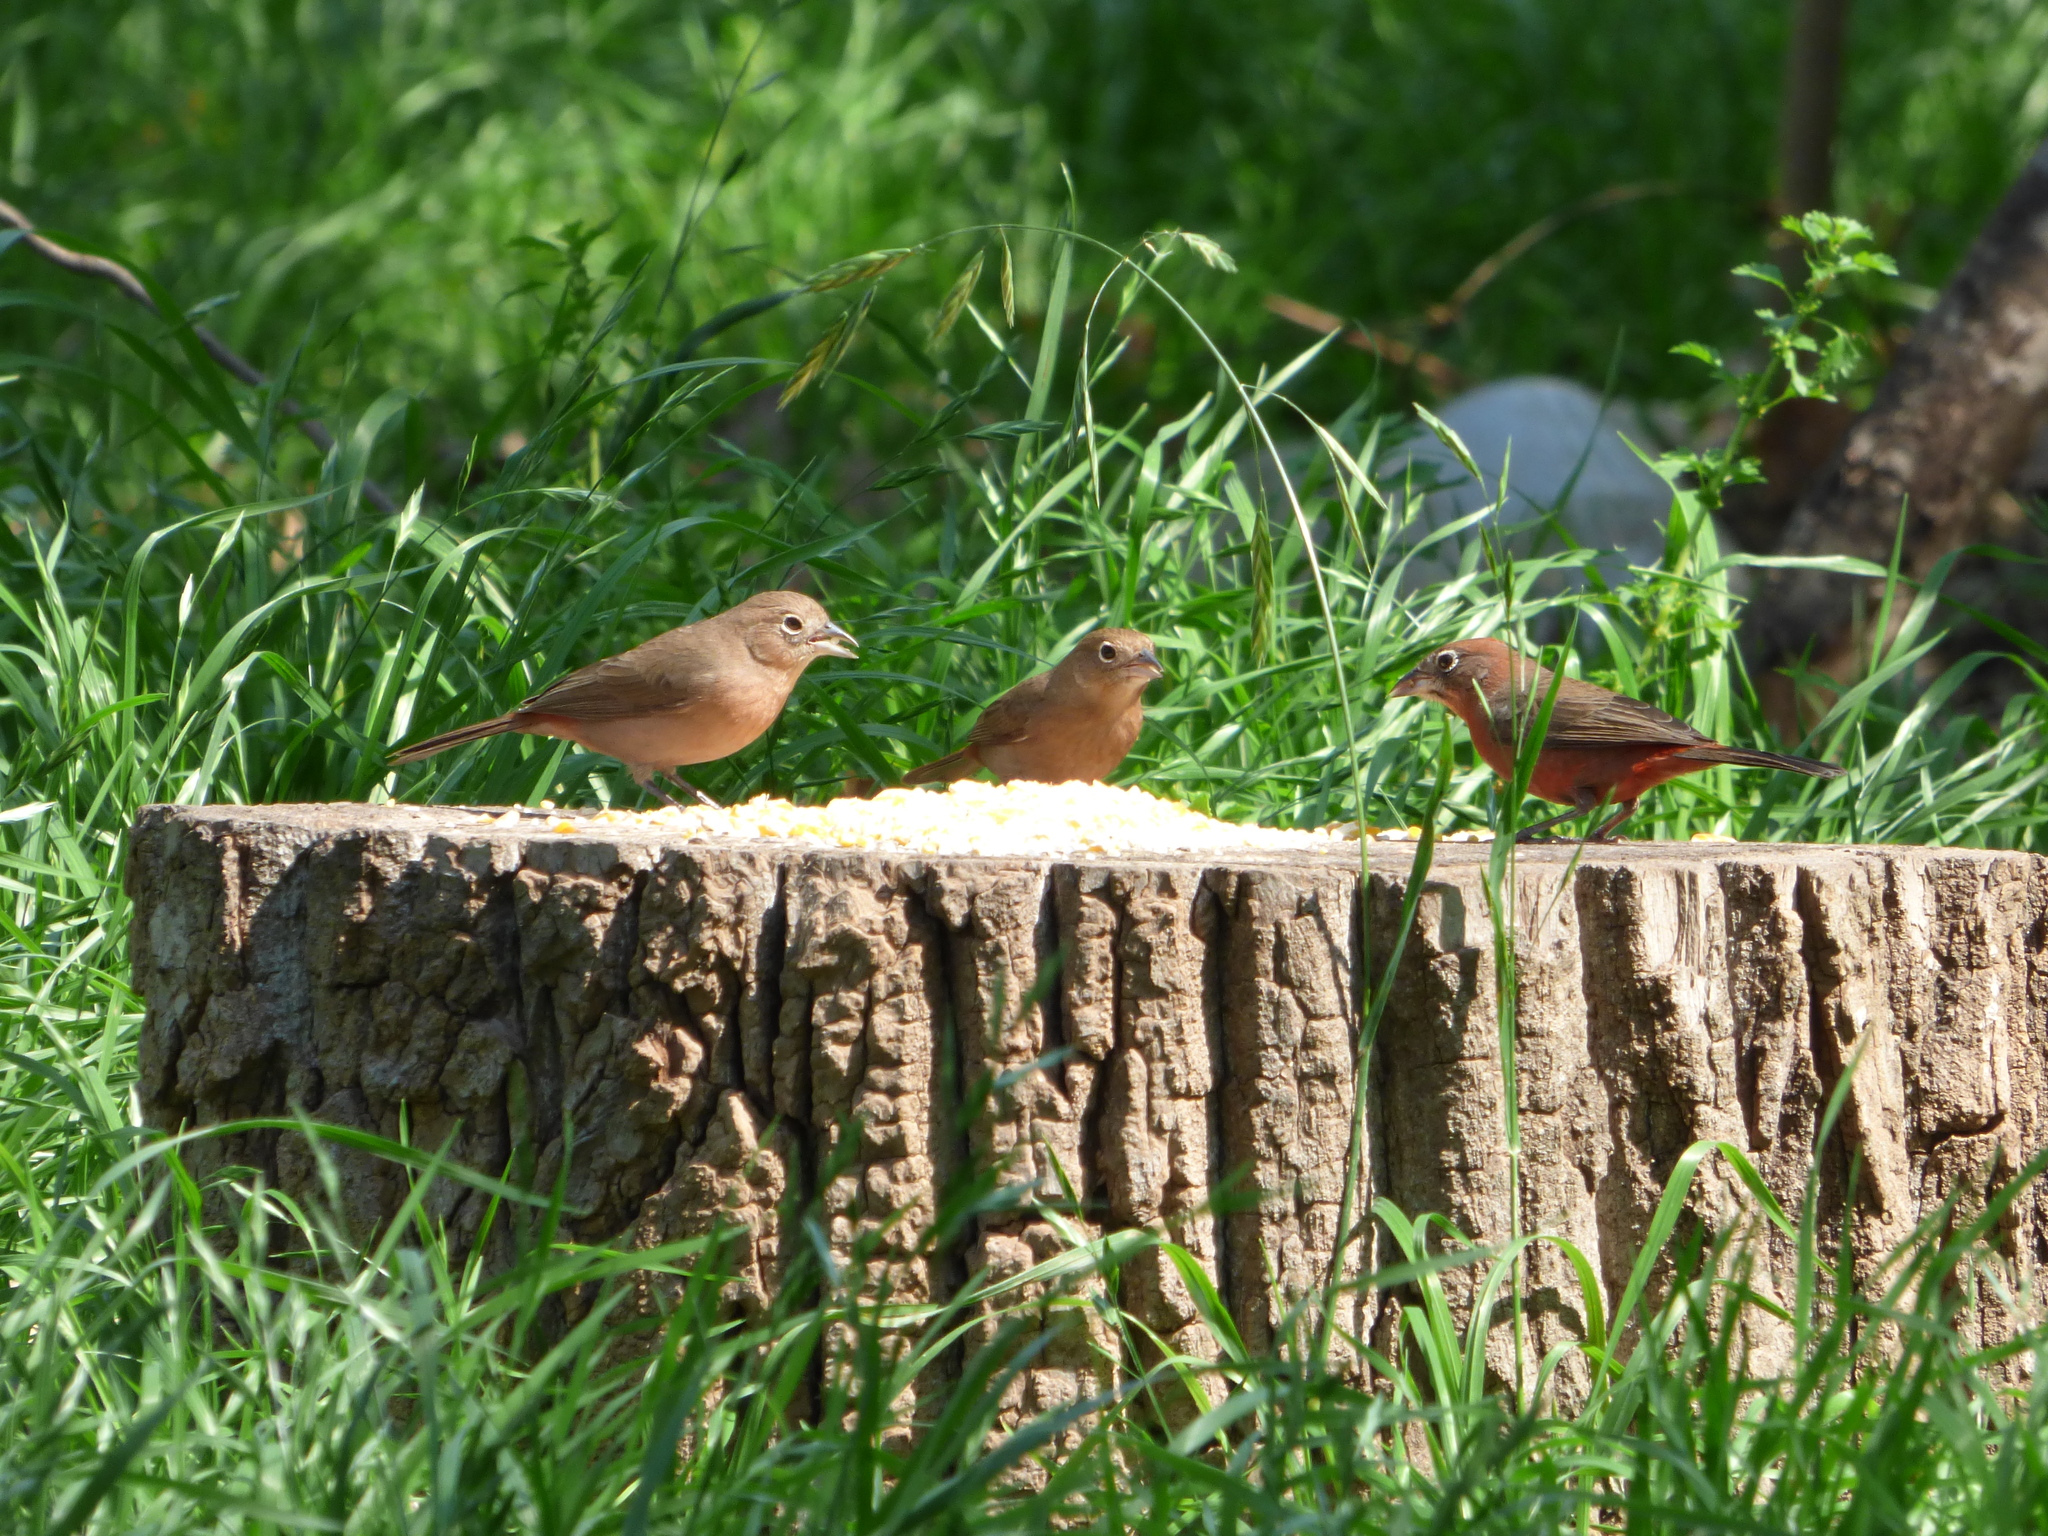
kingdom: Animalia
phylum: Chordata
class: Aves
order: Passeriformes
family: Thraupidae
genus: Coryphospingus
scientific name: Coryphospingus cucullatus
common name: Red pileated finch
